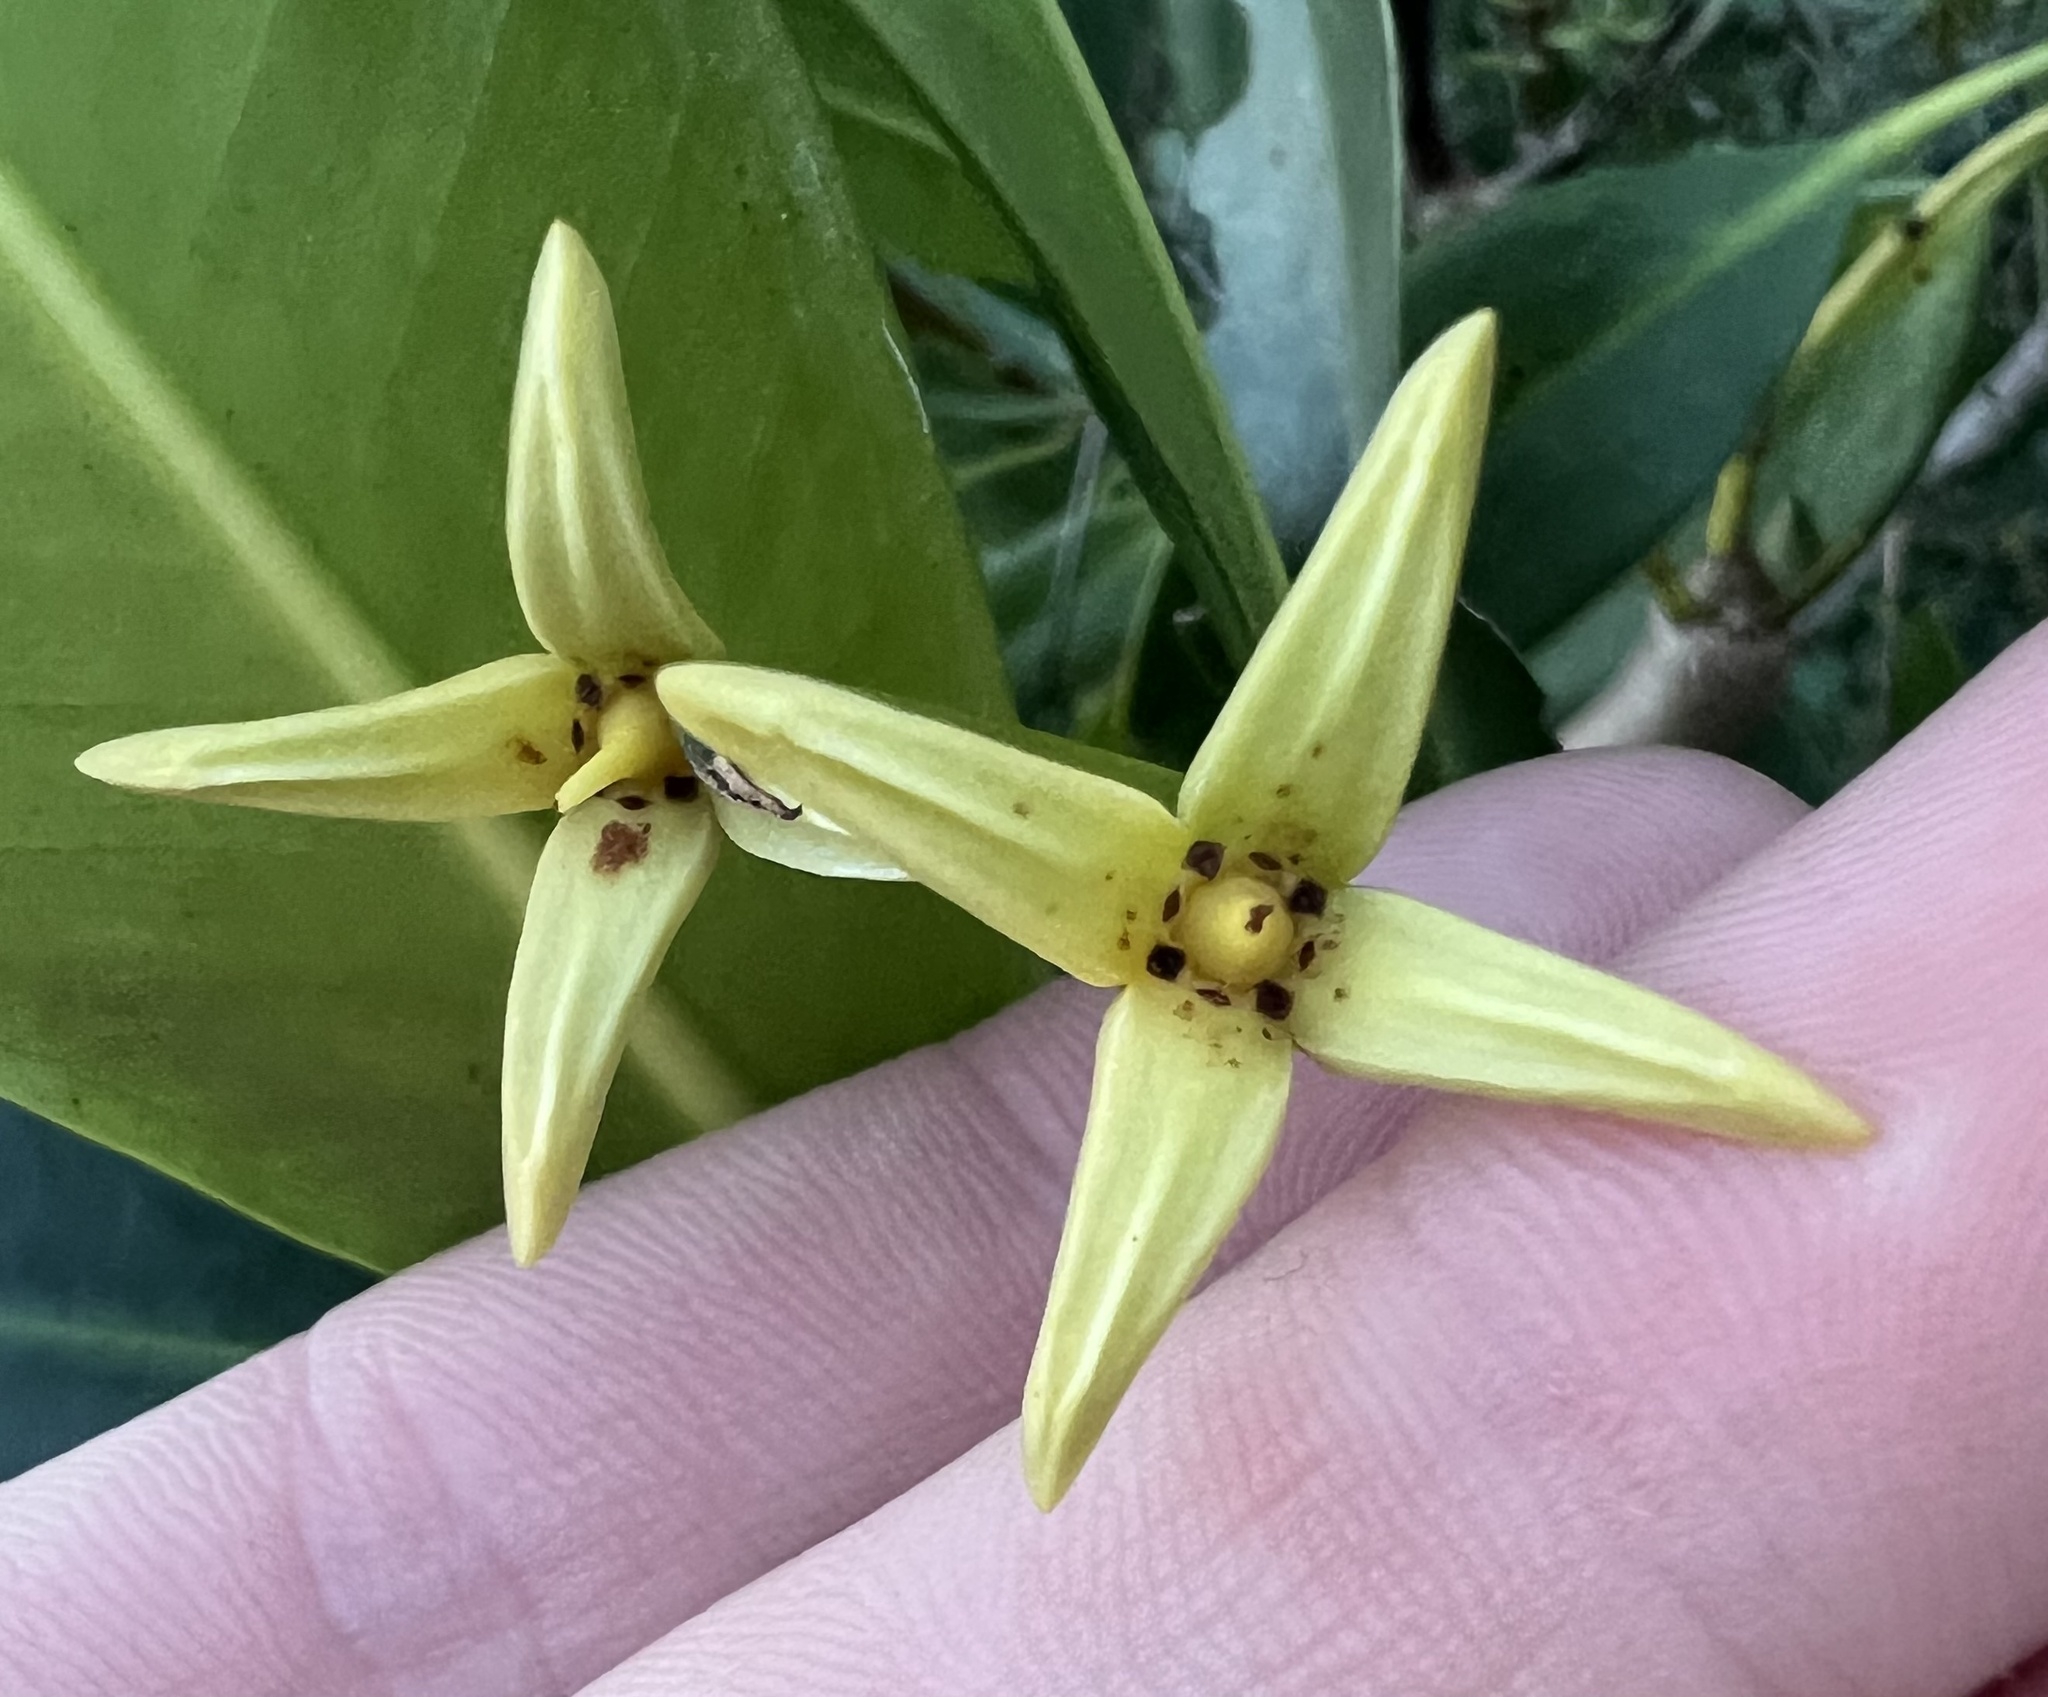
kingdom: Plantae
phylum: Tracheophyta
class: Magnoliopsida
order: Malpighiales
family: Rhizophoraceae
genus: Rhizophora
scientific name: Rhizophora mangle
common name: Red mangrove
